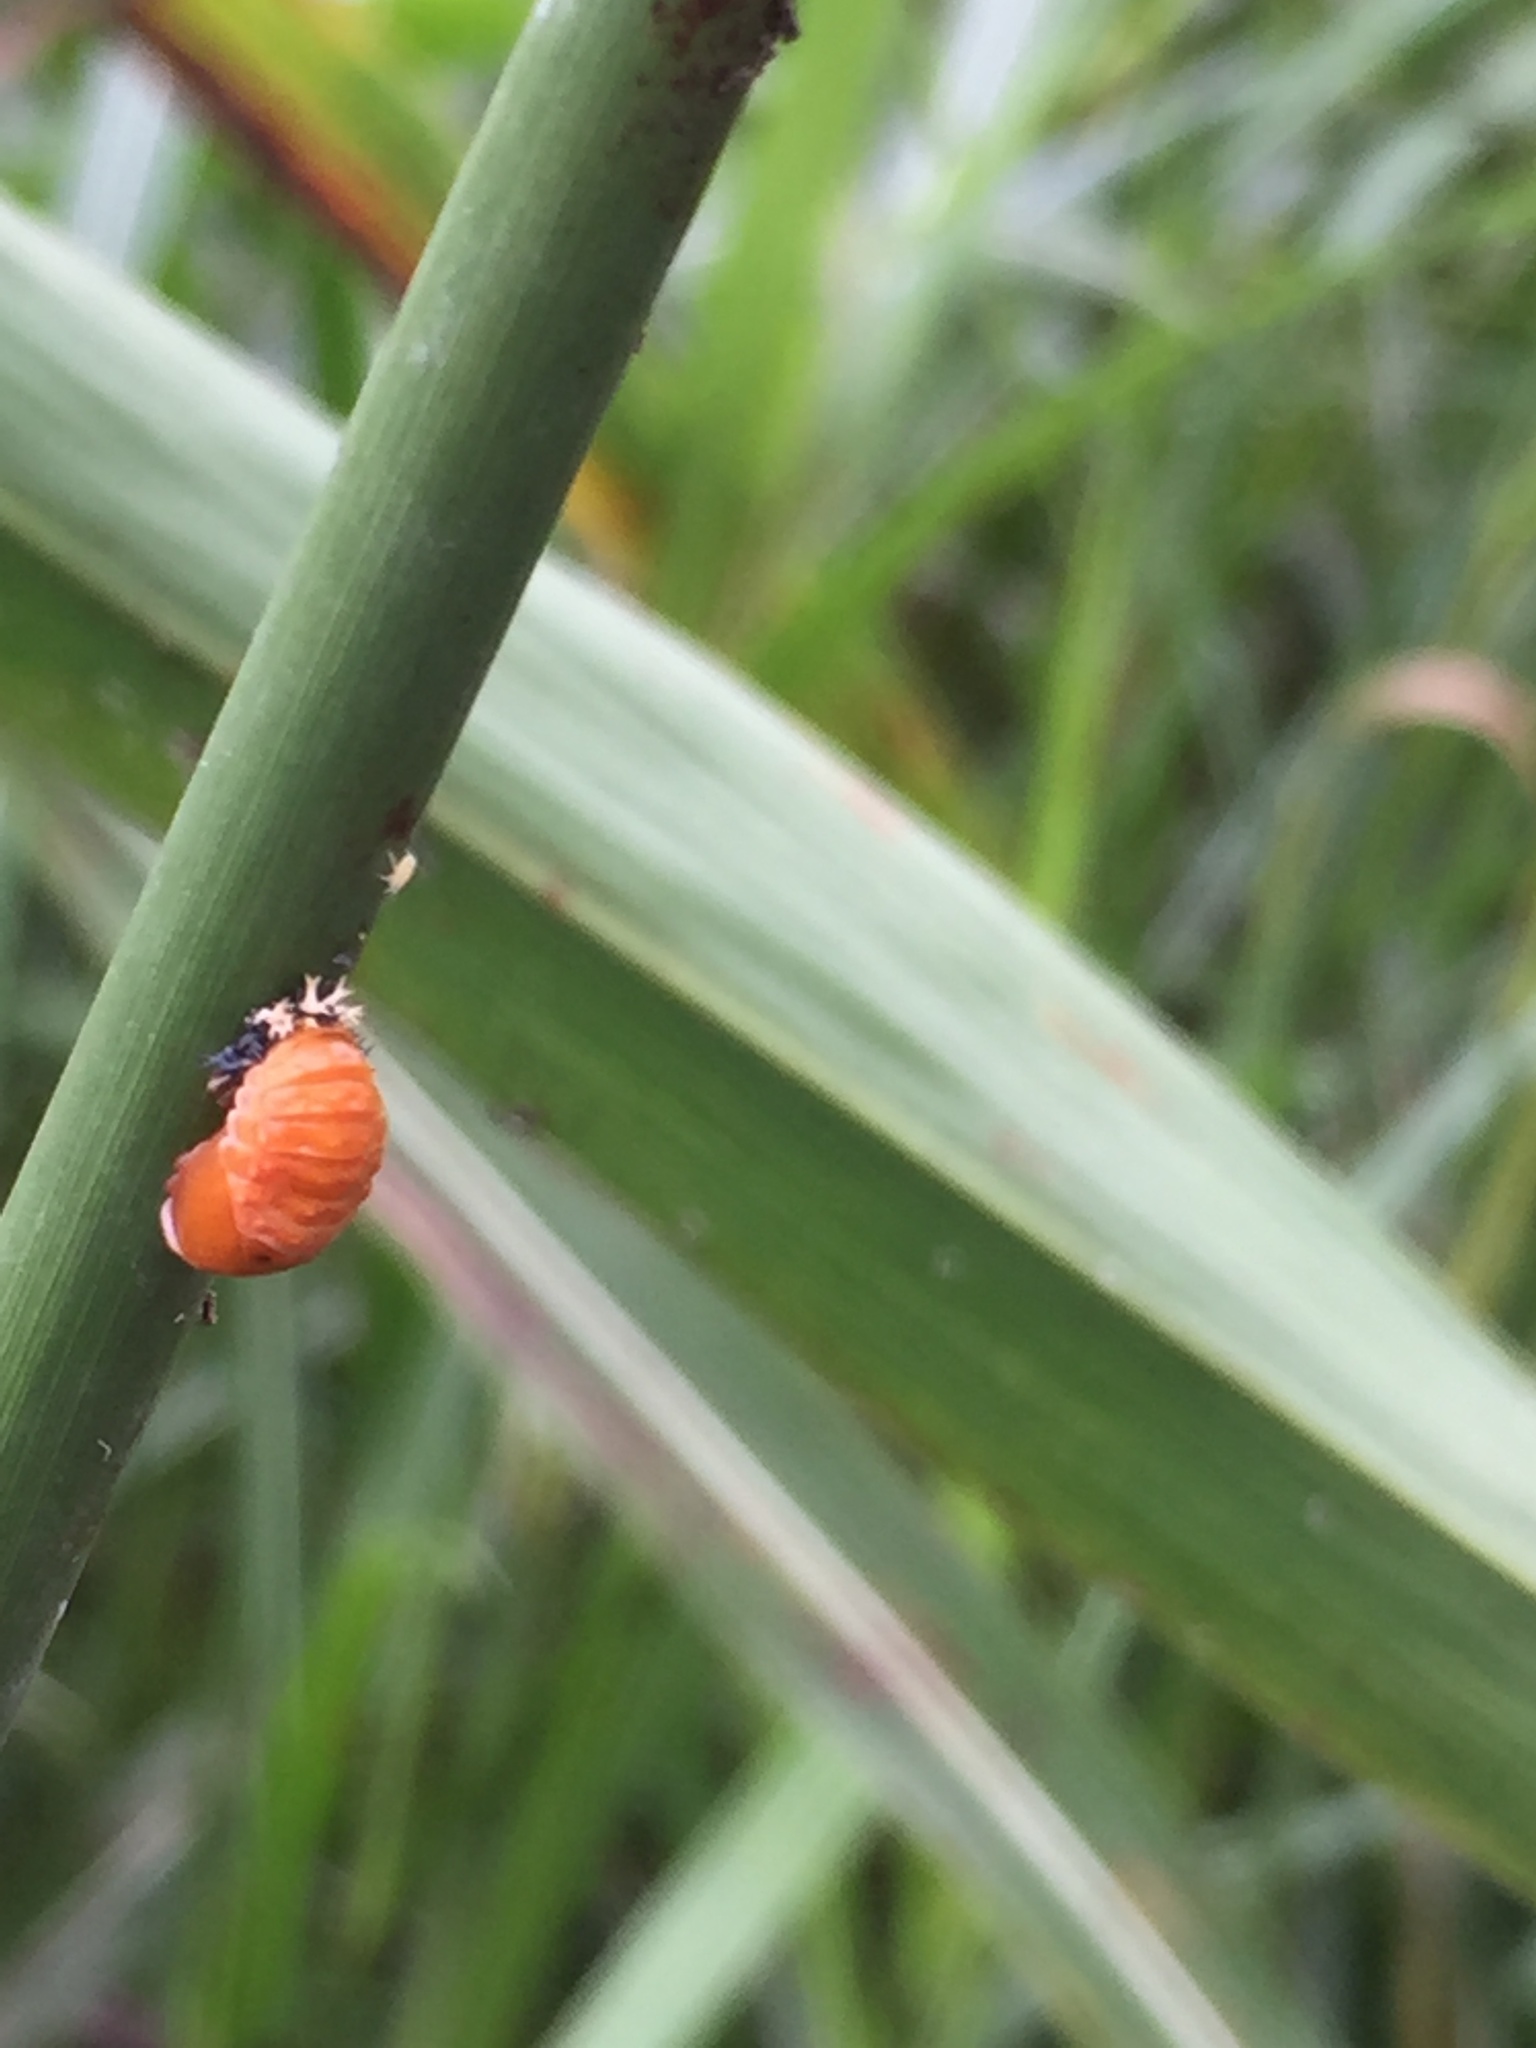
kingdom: Animalia
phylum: Arthropoda
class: Insecta
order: Coleoptera
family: Coccinellidae
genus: Harmonia
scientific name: Harmonia axyridis
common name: Harlequin ladybird
